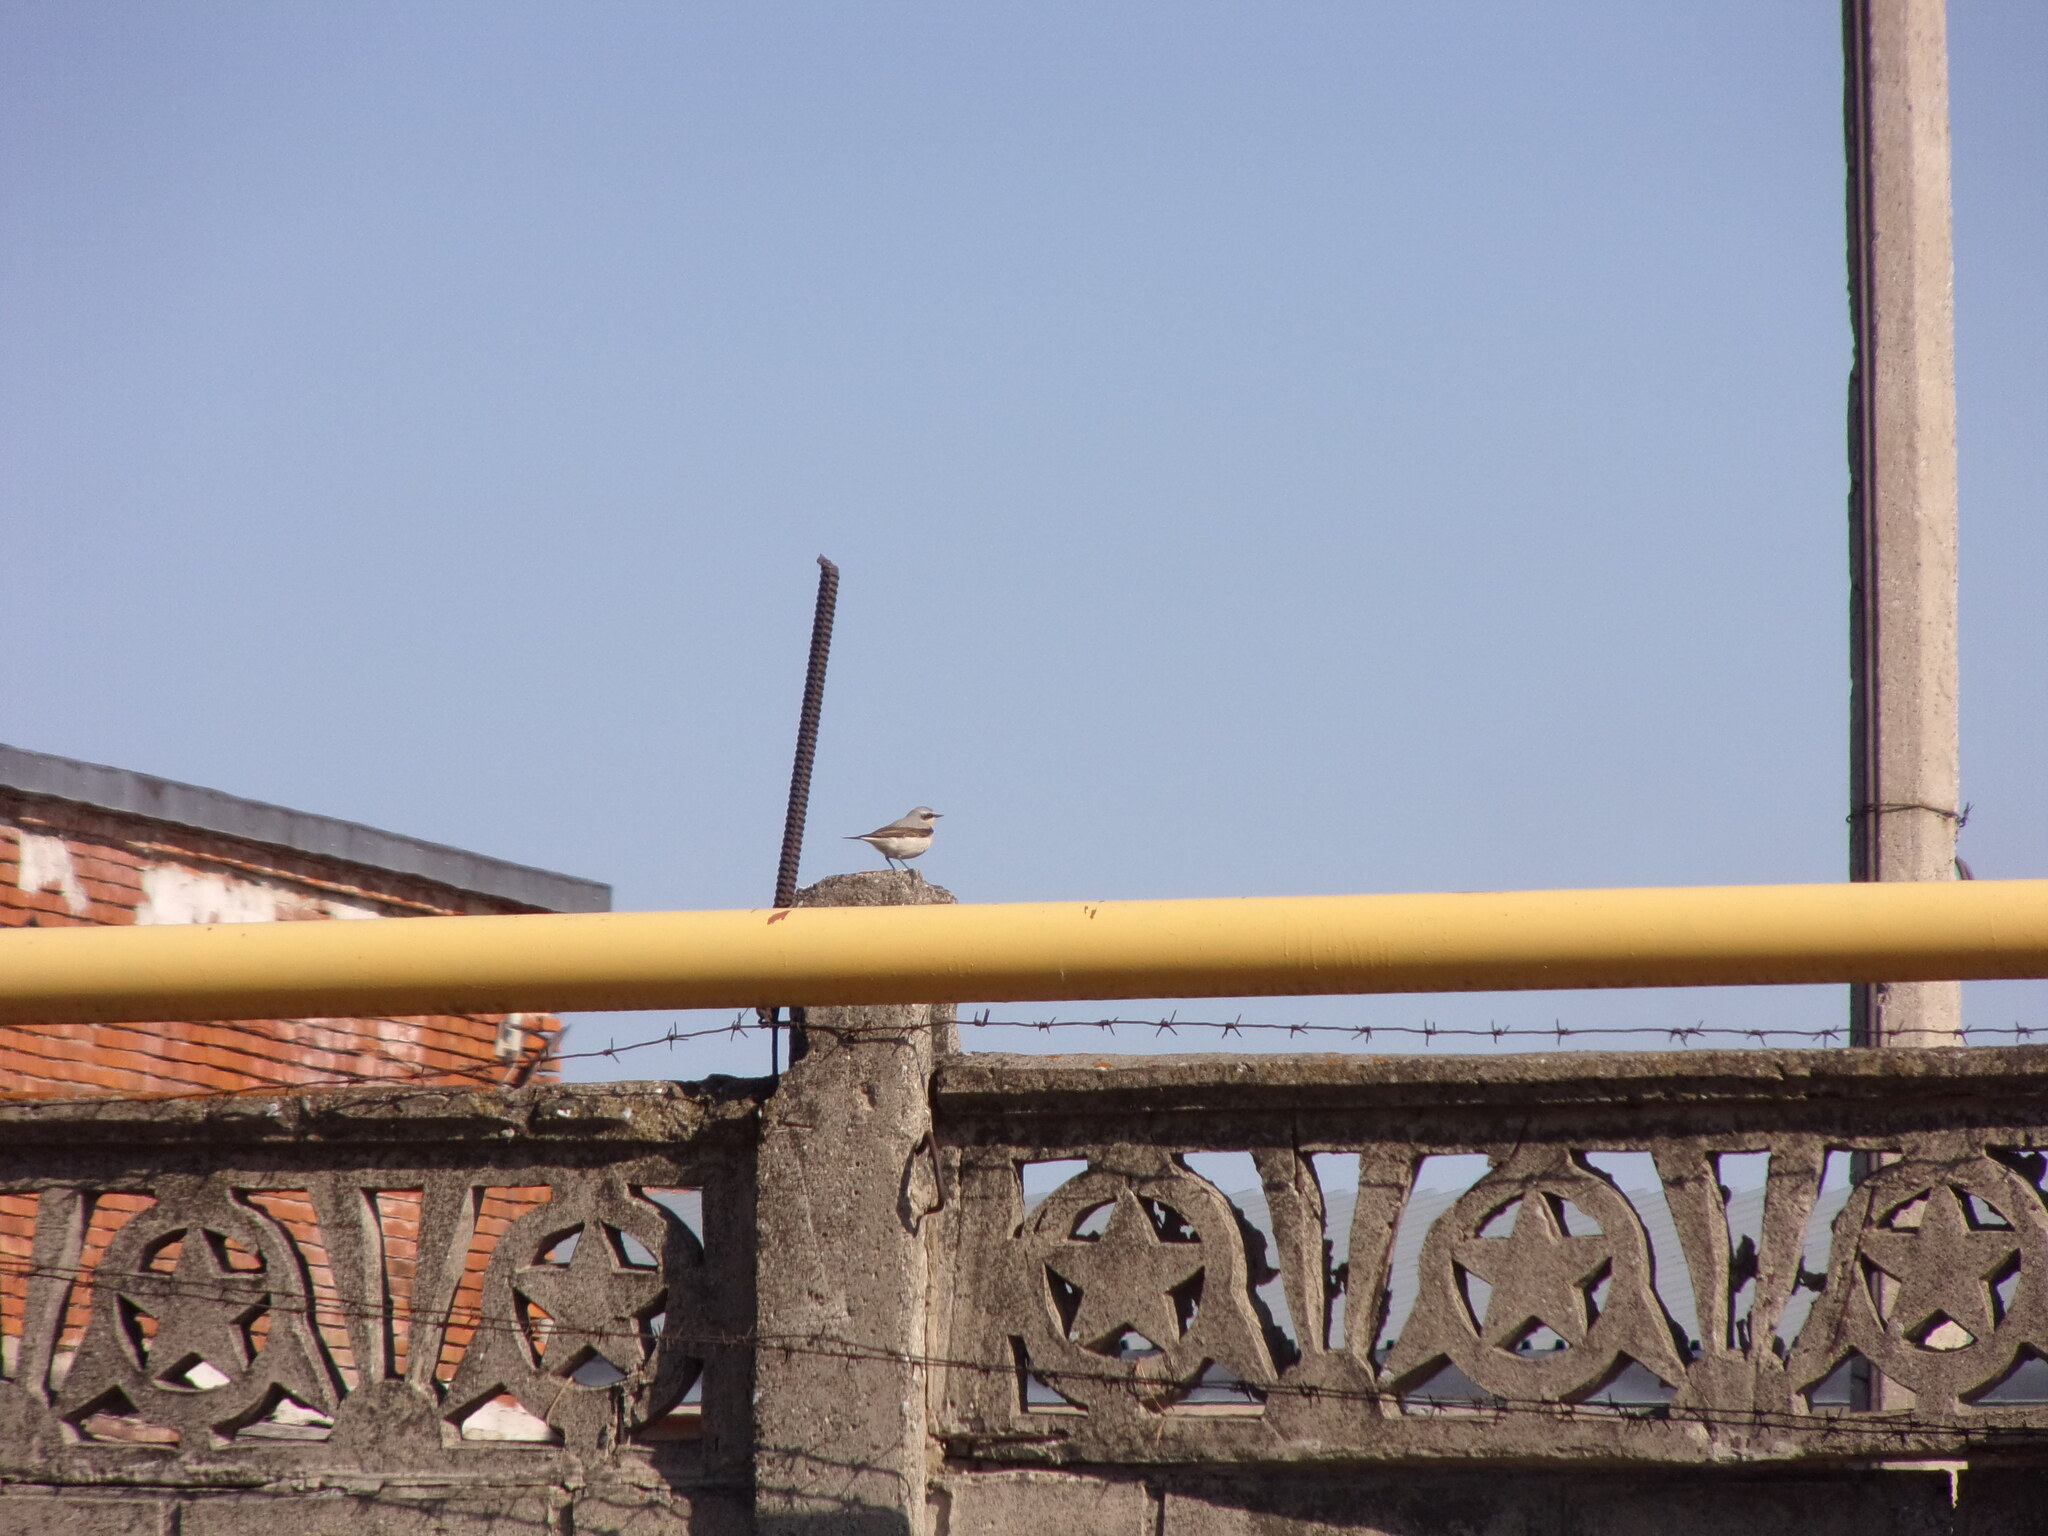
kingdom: Animalia
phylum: Chordata
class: Aves
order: Passeriformes
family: Muscicapidae
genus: Oenanthe
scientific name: Oenanthe oenanthe
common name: Northern wheatear
